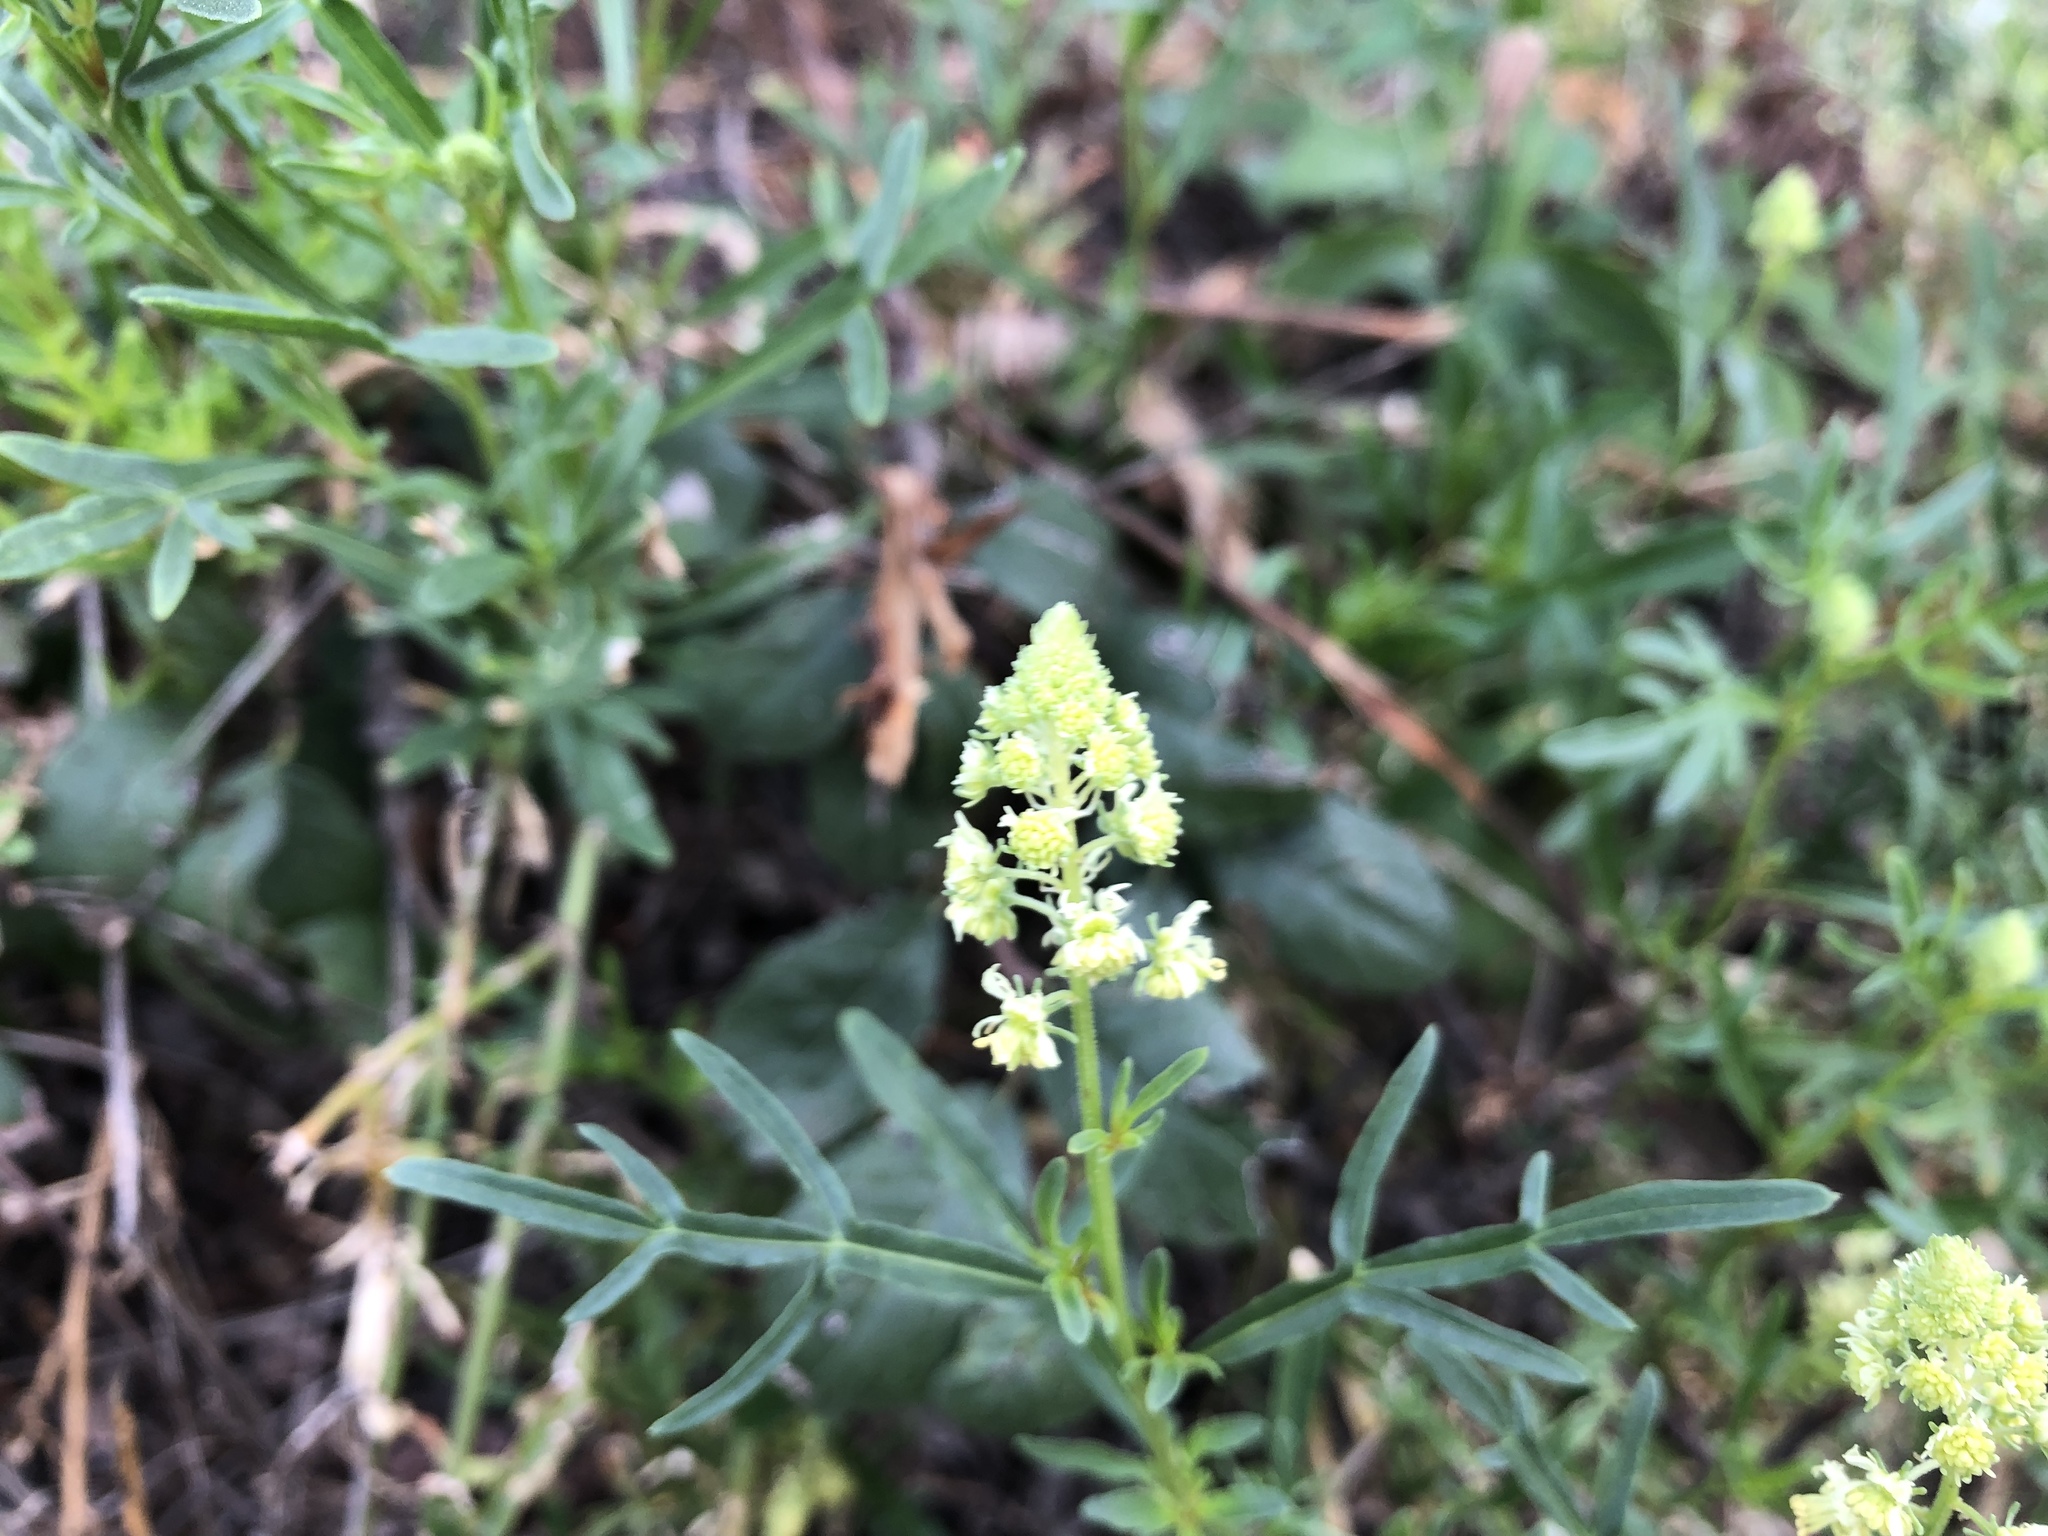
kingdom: Plantae
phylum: Tracheophyta
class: Magnoliopsida
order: Brassicales
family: Resedaceae
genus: Reseda
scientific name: Reseda lutea
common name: Wild mignonette
